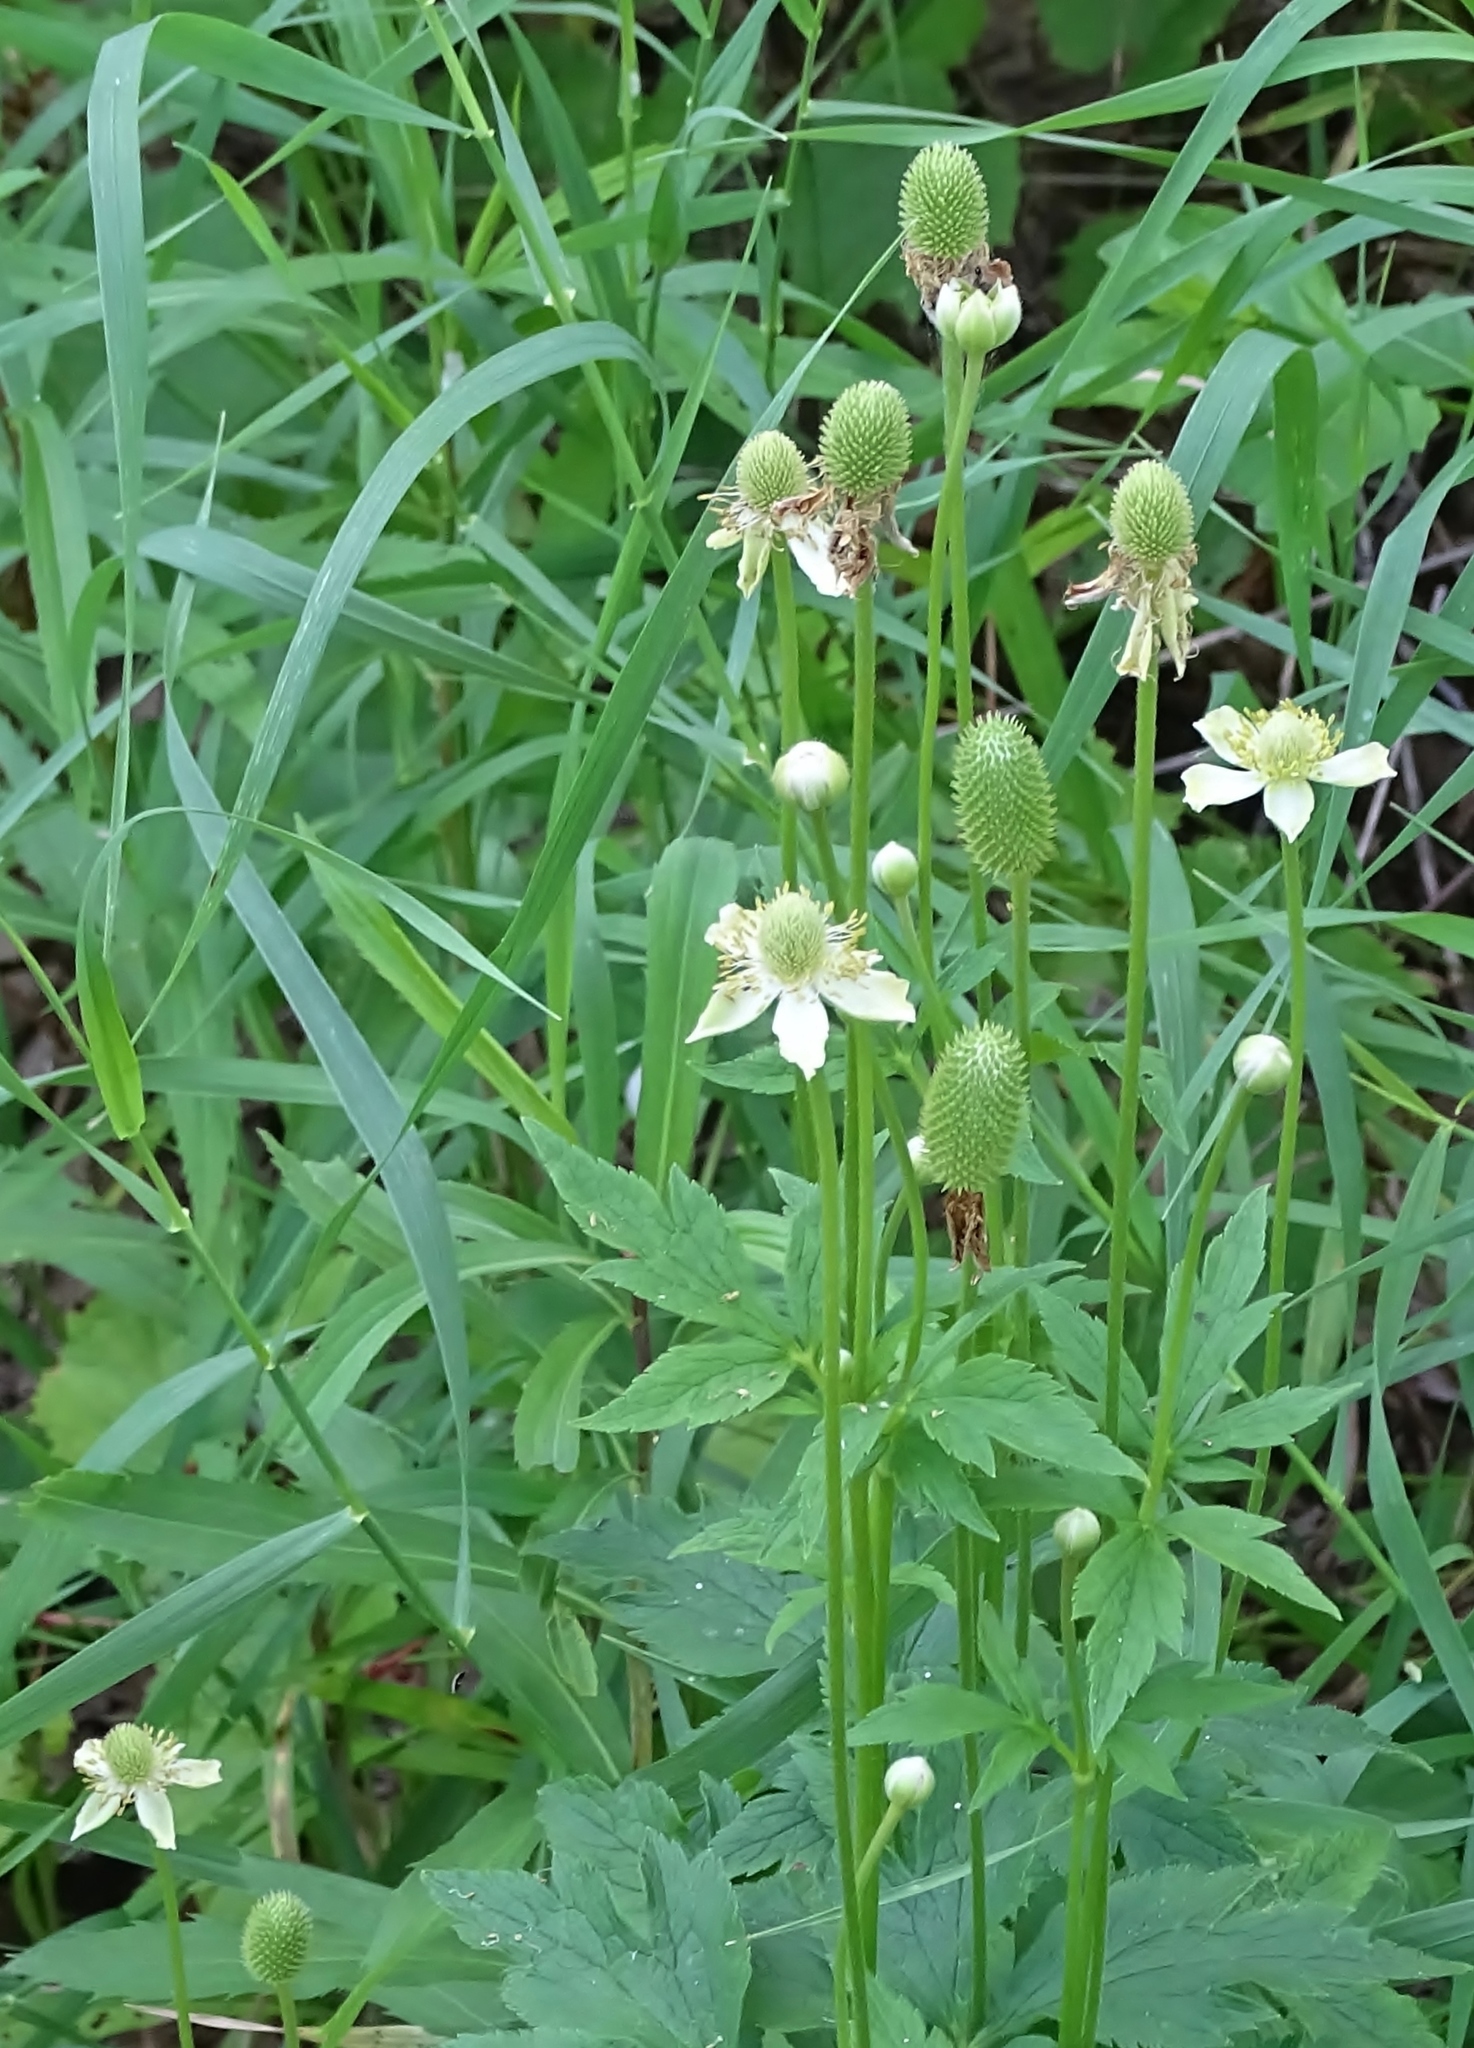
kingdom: Plantae
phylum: Tracheophyta
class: Magnoliopsida
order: Ranunculales
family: Ranunculaceae
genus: Anemone
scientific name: Anemone virginiana
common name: Tall anemone
